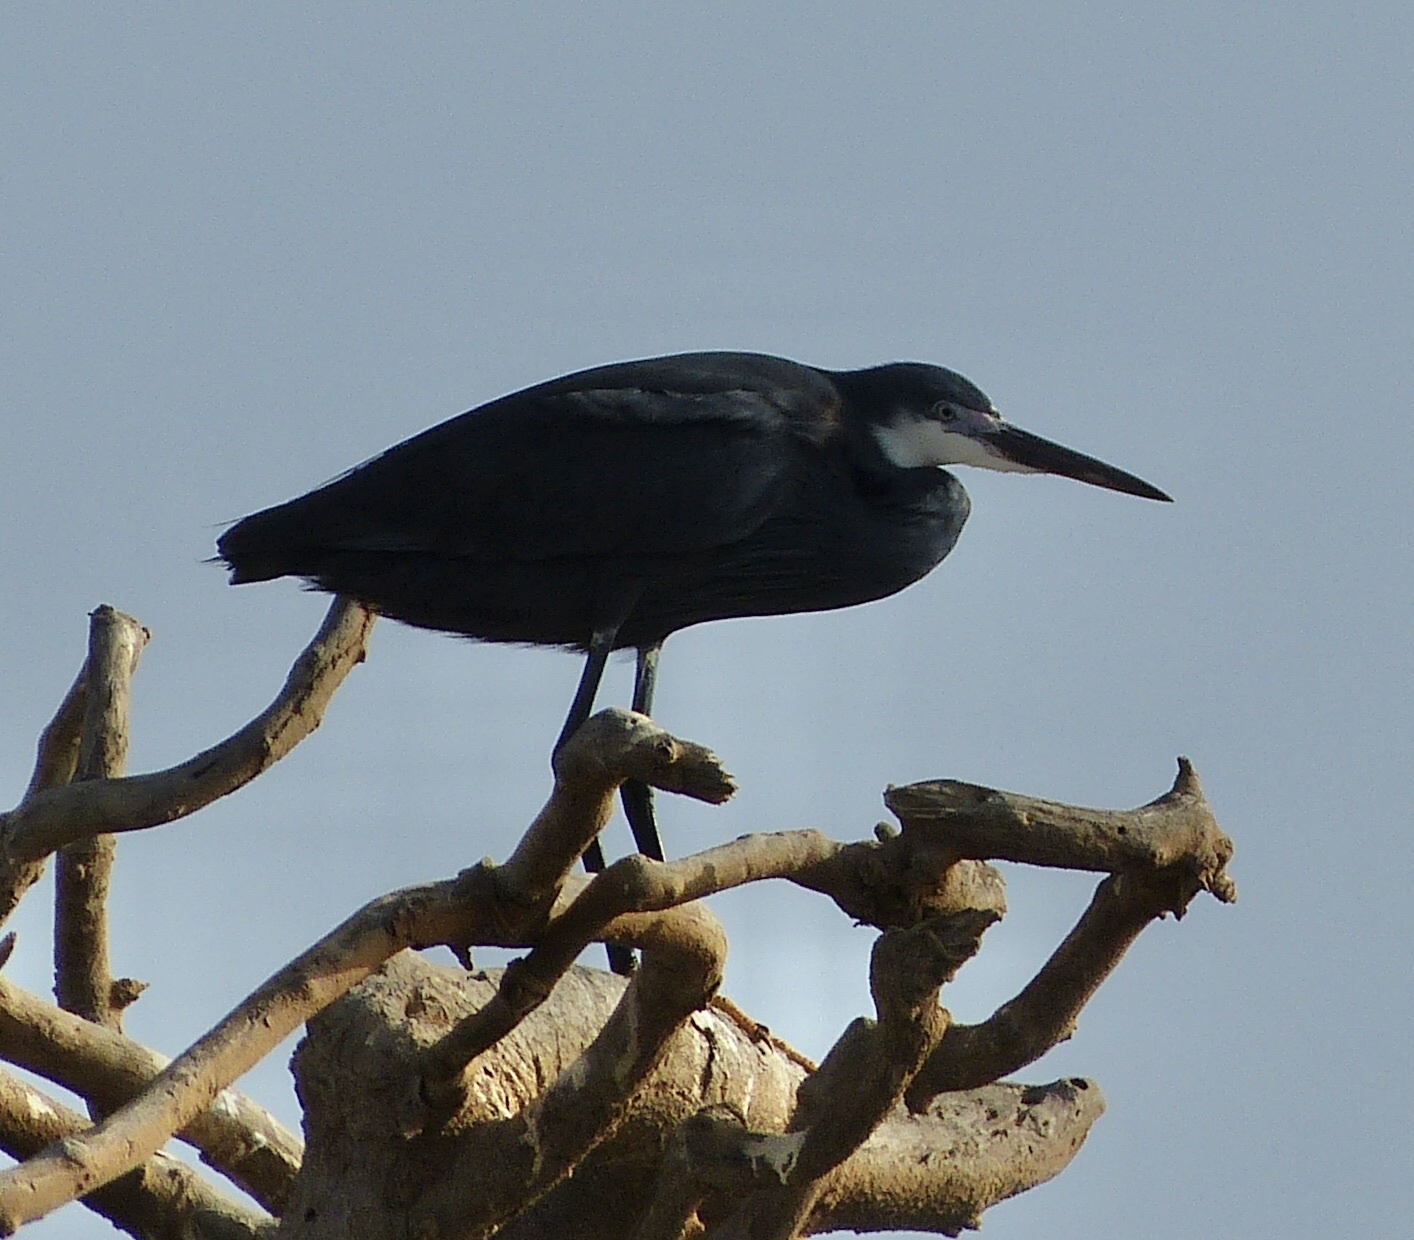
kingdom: Animalia
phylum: Chordata
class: Aves
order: Pelecaniformes
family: Ardeidae
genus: Egretta
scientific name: Egretta gularis
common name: Western reef-heron
